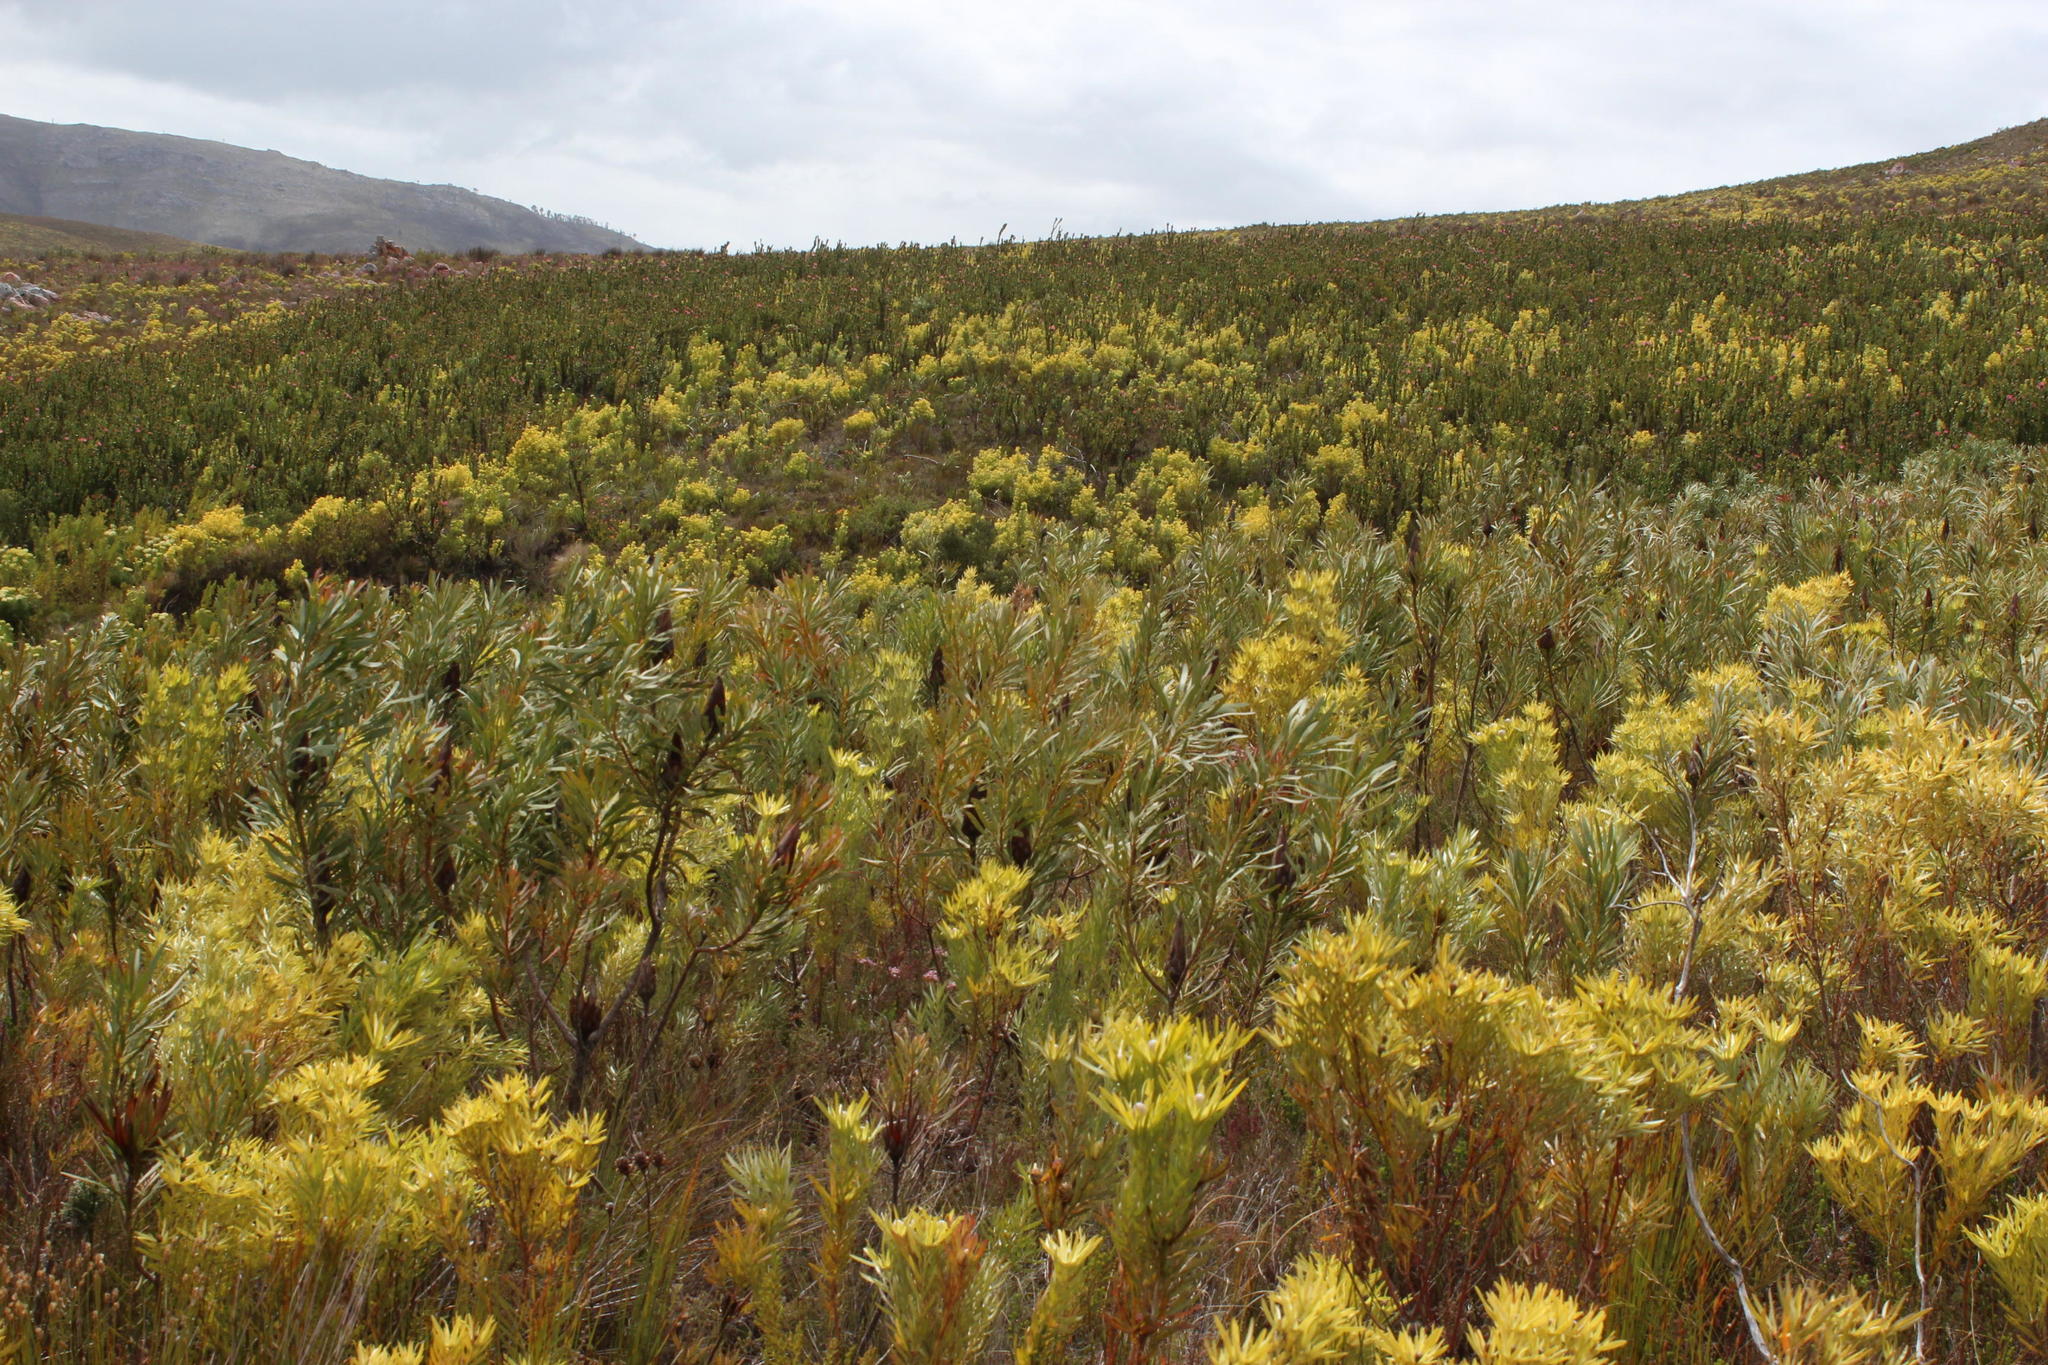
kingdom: Plantae
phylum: Tracheophyta
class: Magnoliopsida
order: Proteales
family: Proteaceae
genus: Leucadendron
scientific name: Leucadendron xanthoconus
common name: Sickle-leaf conebush
